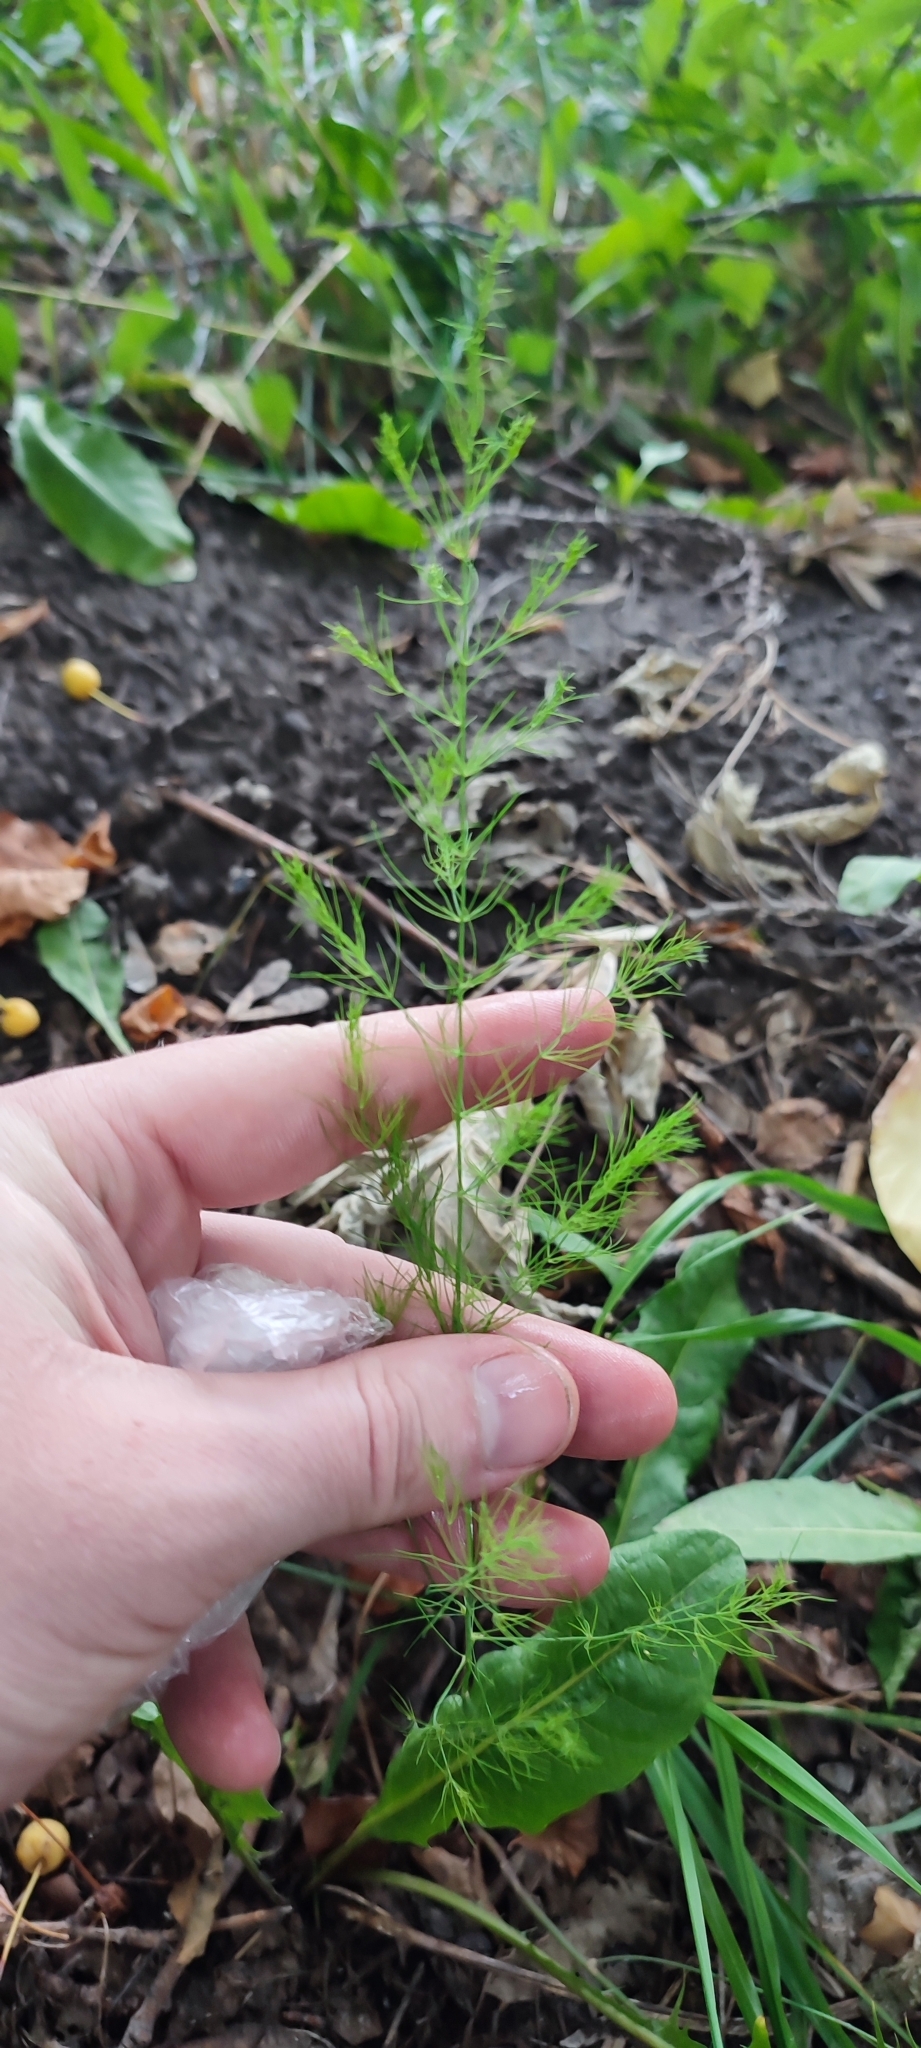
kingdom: Plantae
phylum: Tracheophyta
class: Liliopsida
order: Asparagales
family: Asparagaceae
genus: Asparagus
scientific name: Asparagus officinalis
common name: Garden asparagus
